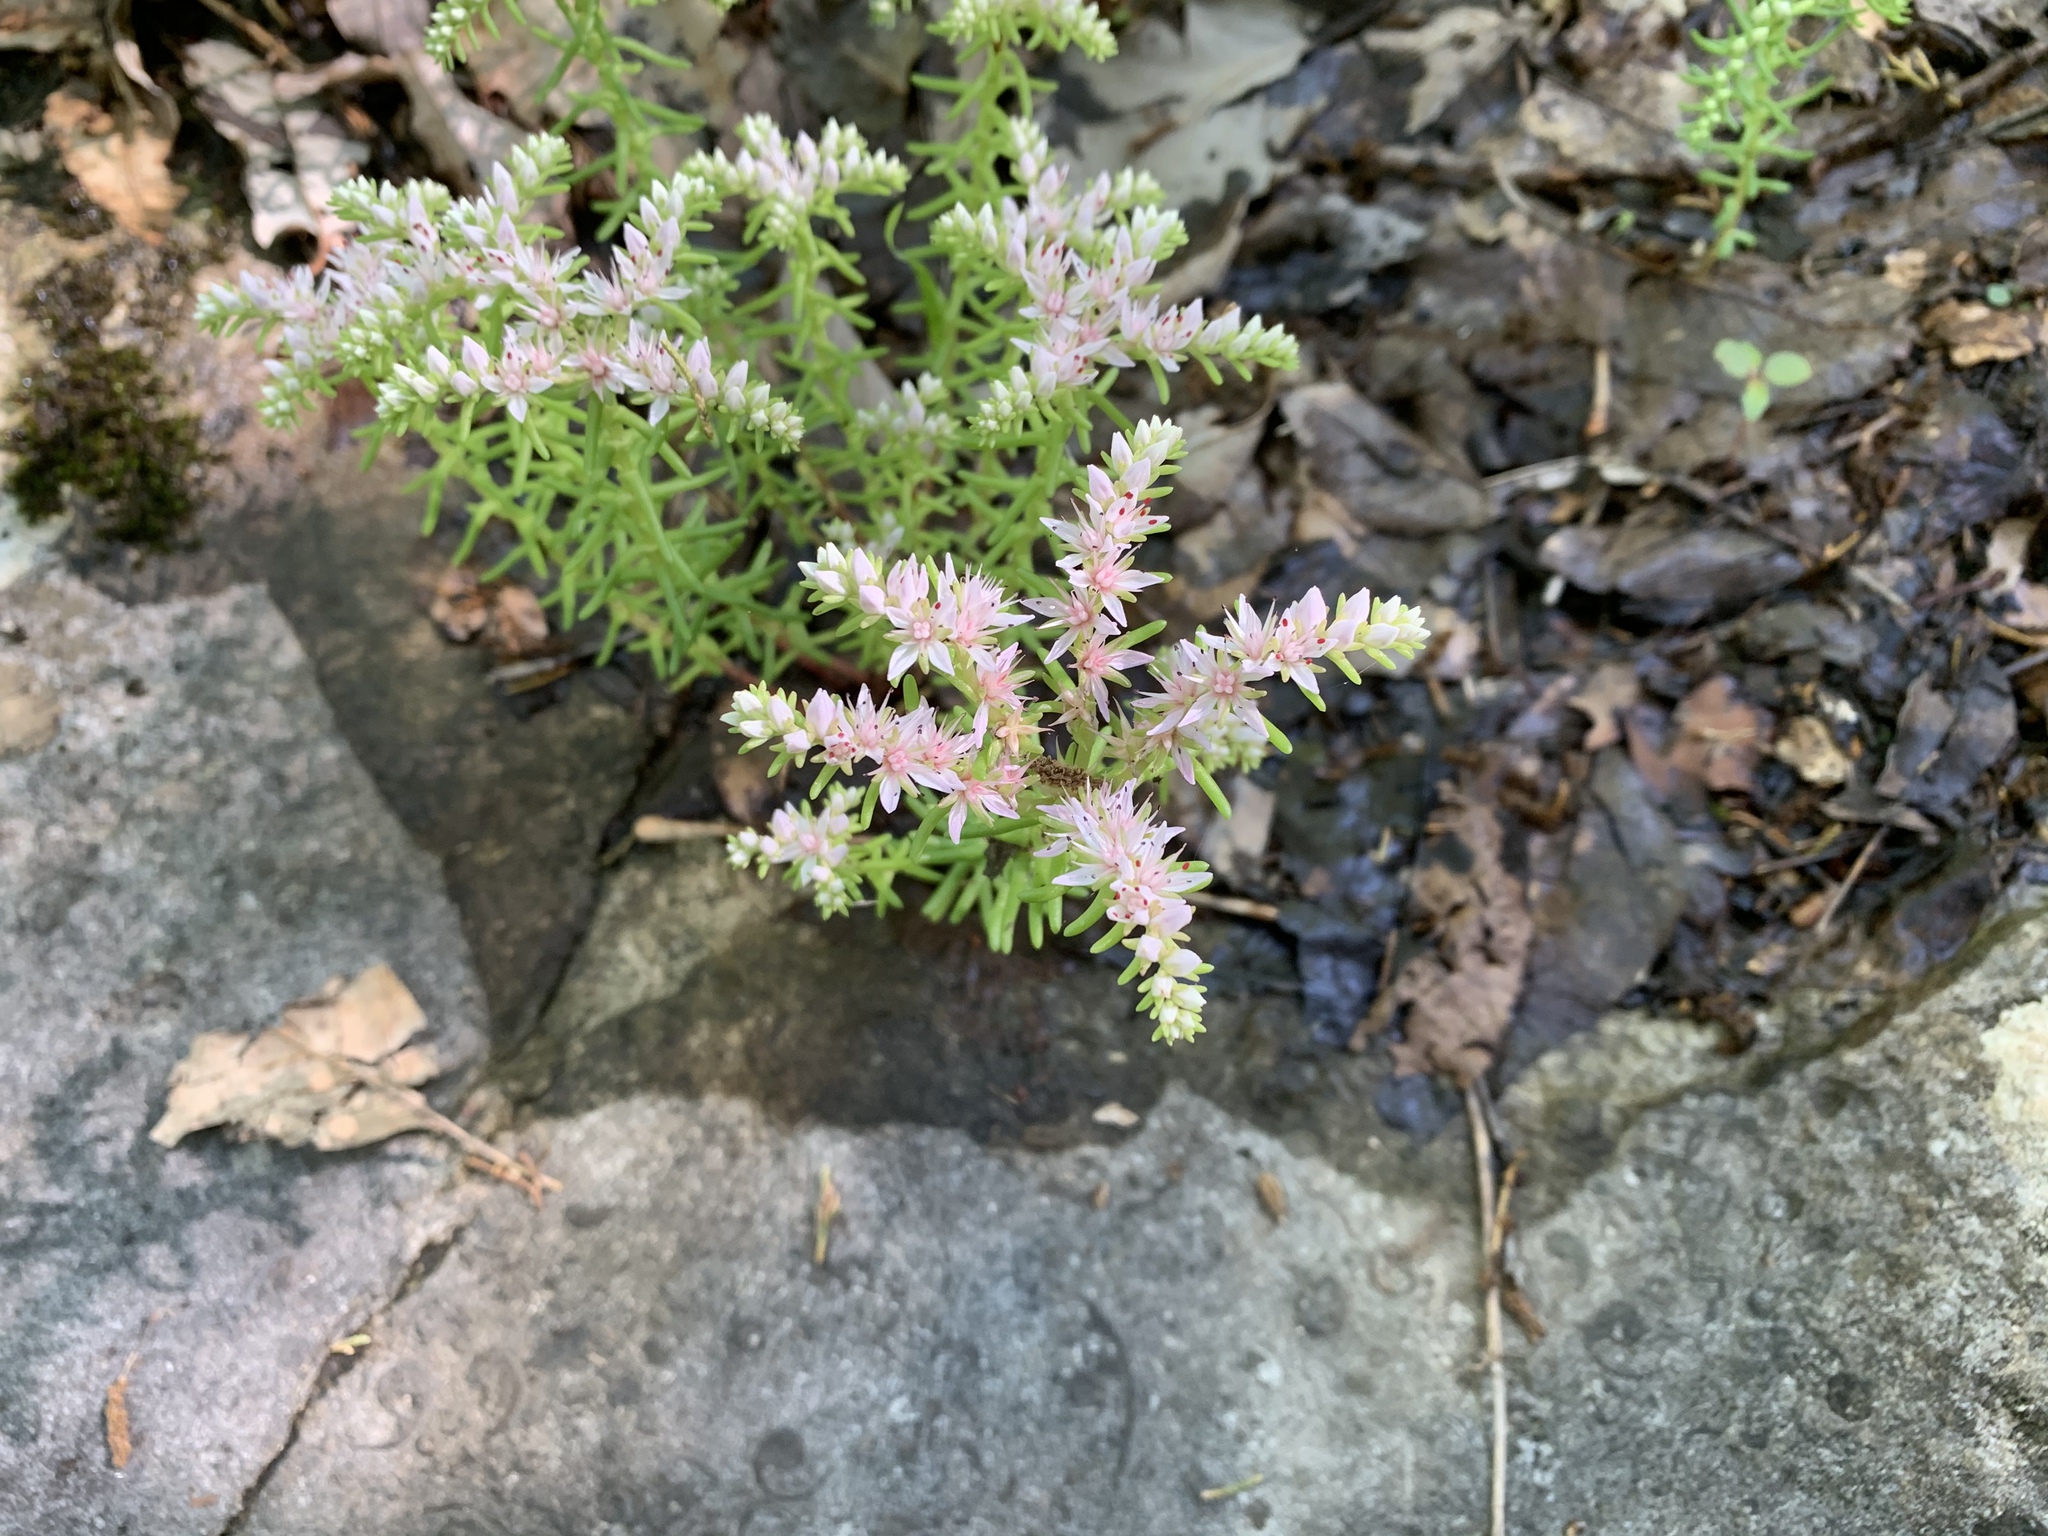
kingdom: Plantae
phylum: Tracheophyta
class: Magnoliopsida
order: Saxifragales
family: Crassulaceae
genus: Sedum
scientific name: Sedum pulchellum
